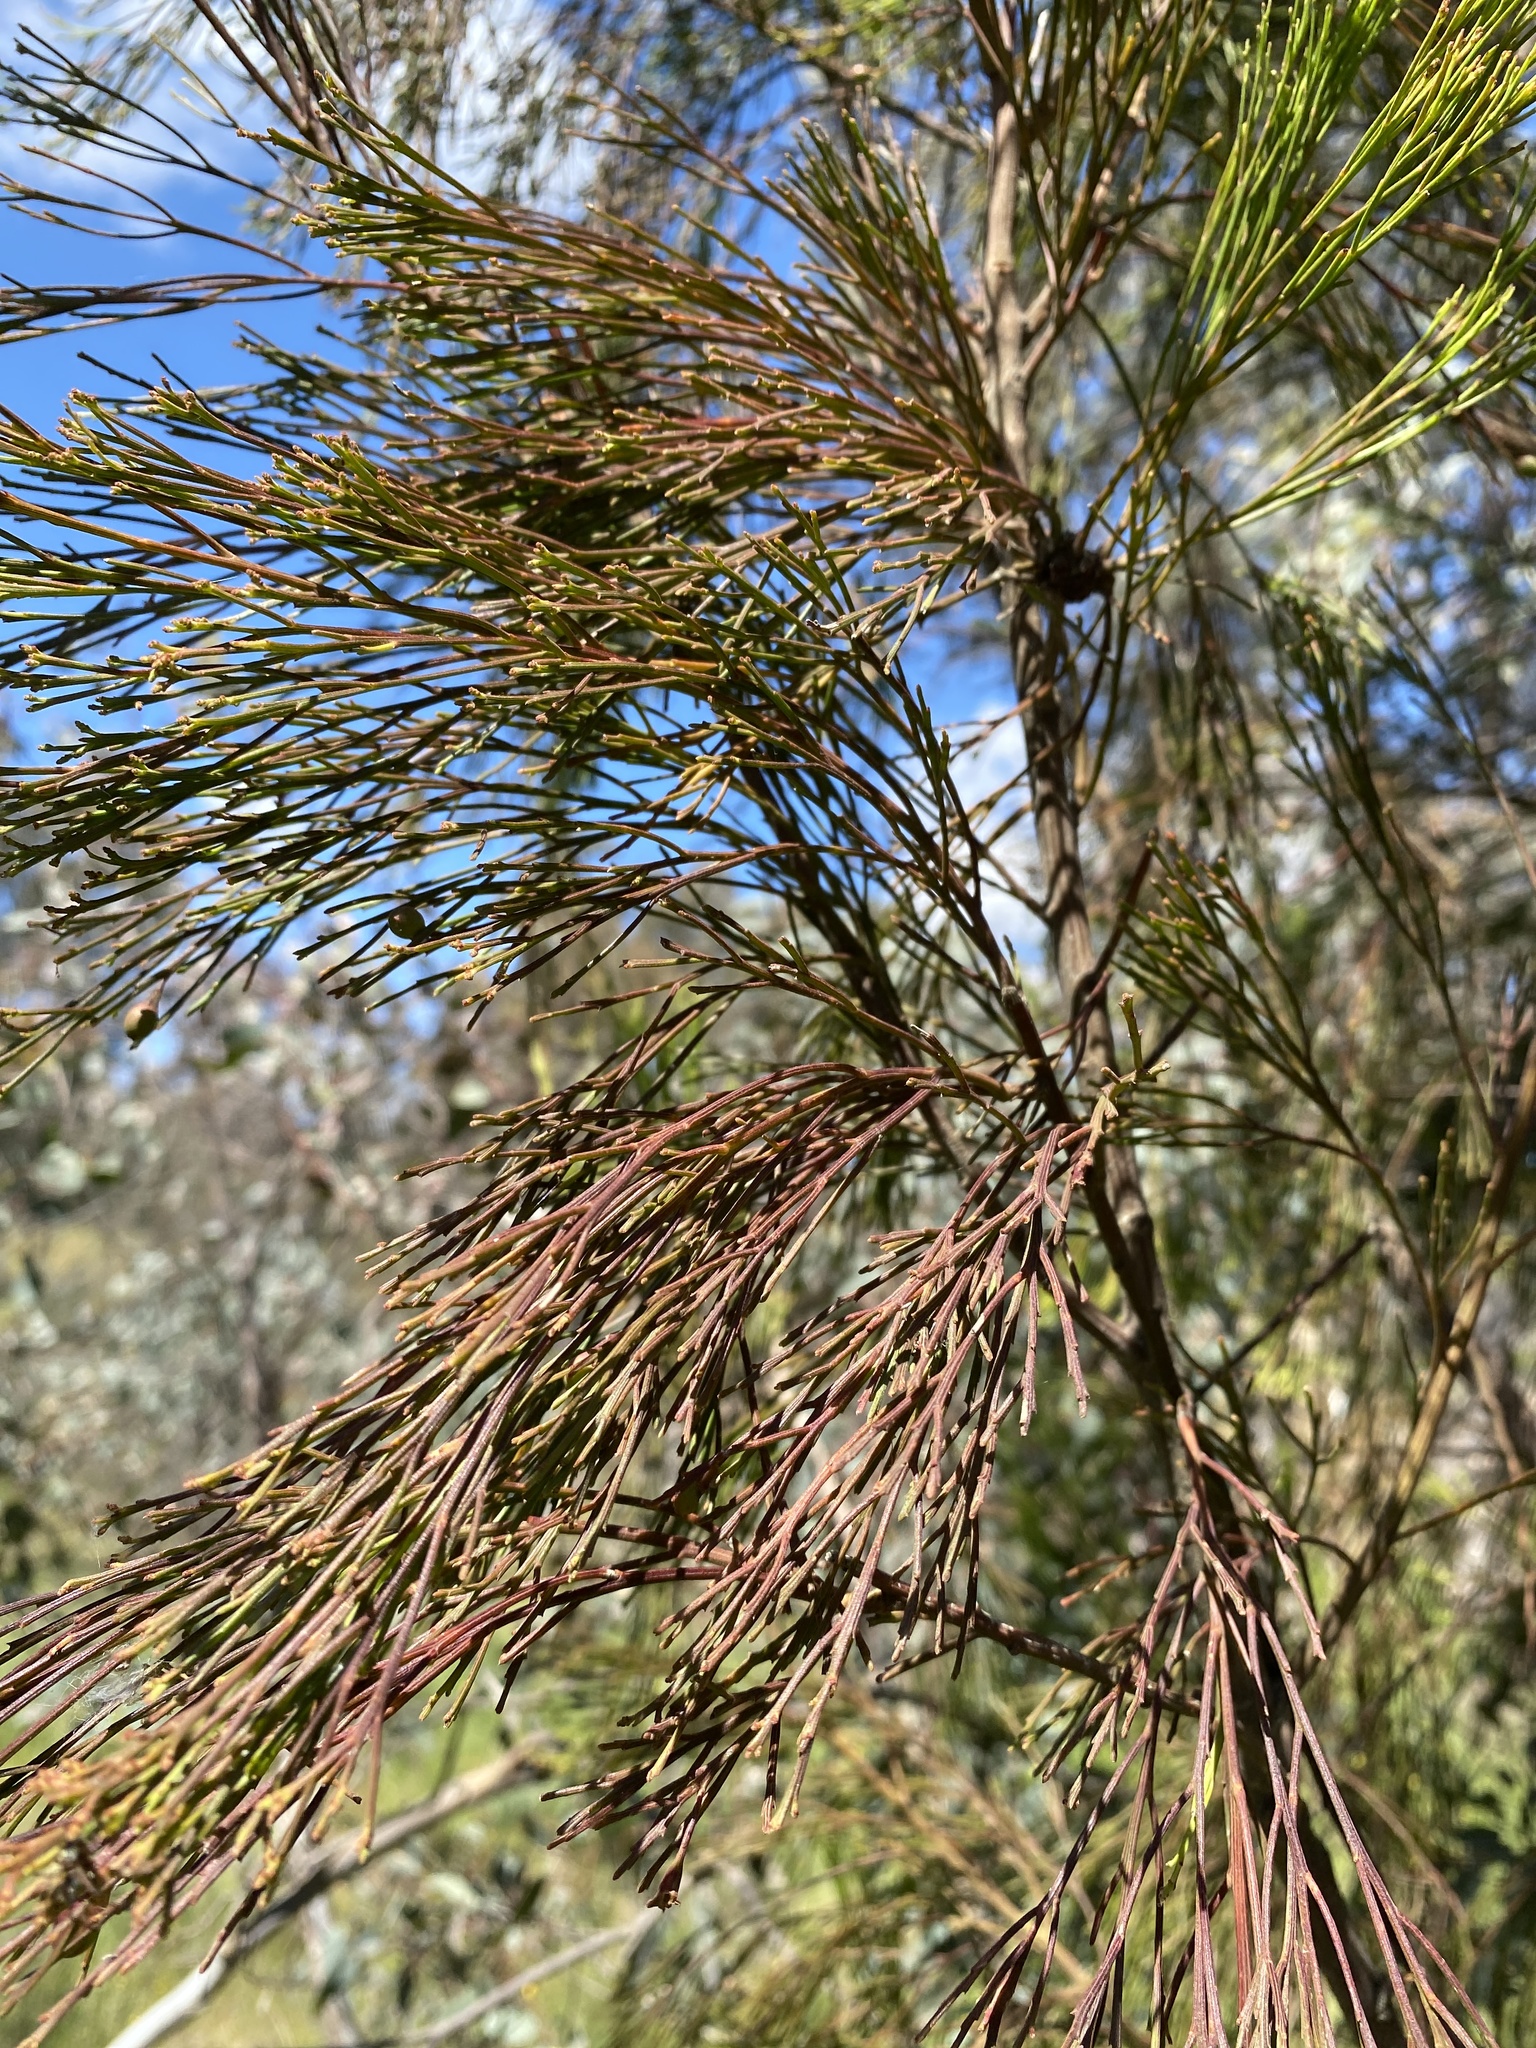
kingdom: Plantae
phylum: Tracheophyta
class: Magnoliopsida
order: Santalales
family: Santalaceae
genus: Exocarpos
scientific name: Exocarpos cupressiformis
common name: Cherry ballart
